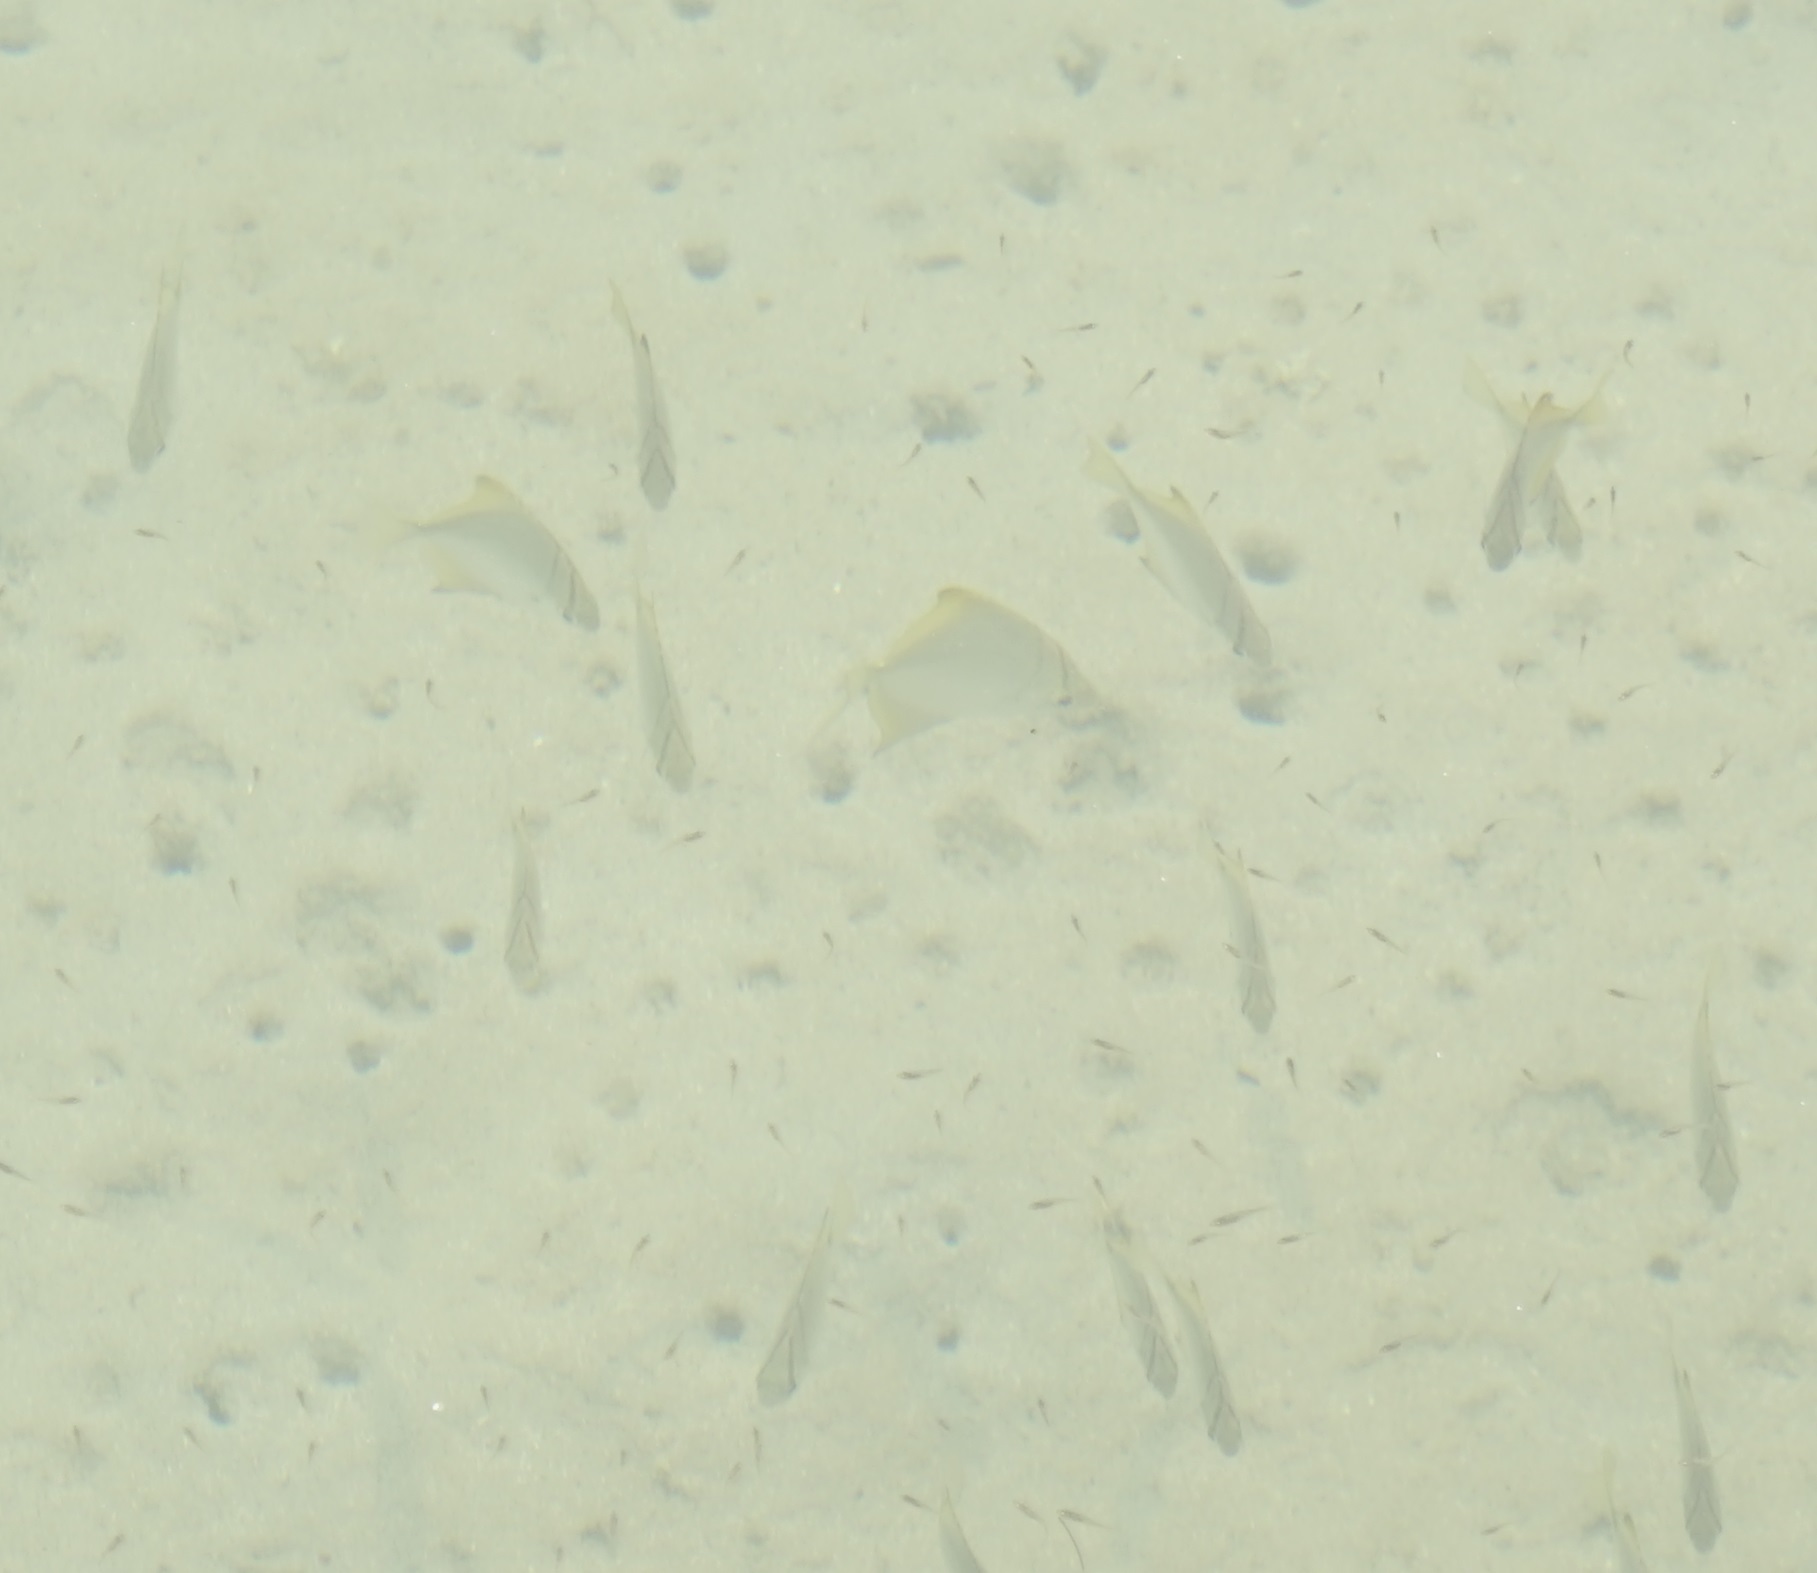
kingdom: Animalia
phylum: Chordata
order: Perciformes
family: Monodactylidae
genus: Monodactylus
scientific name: Monodactylus argenteus
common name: Silver moony
